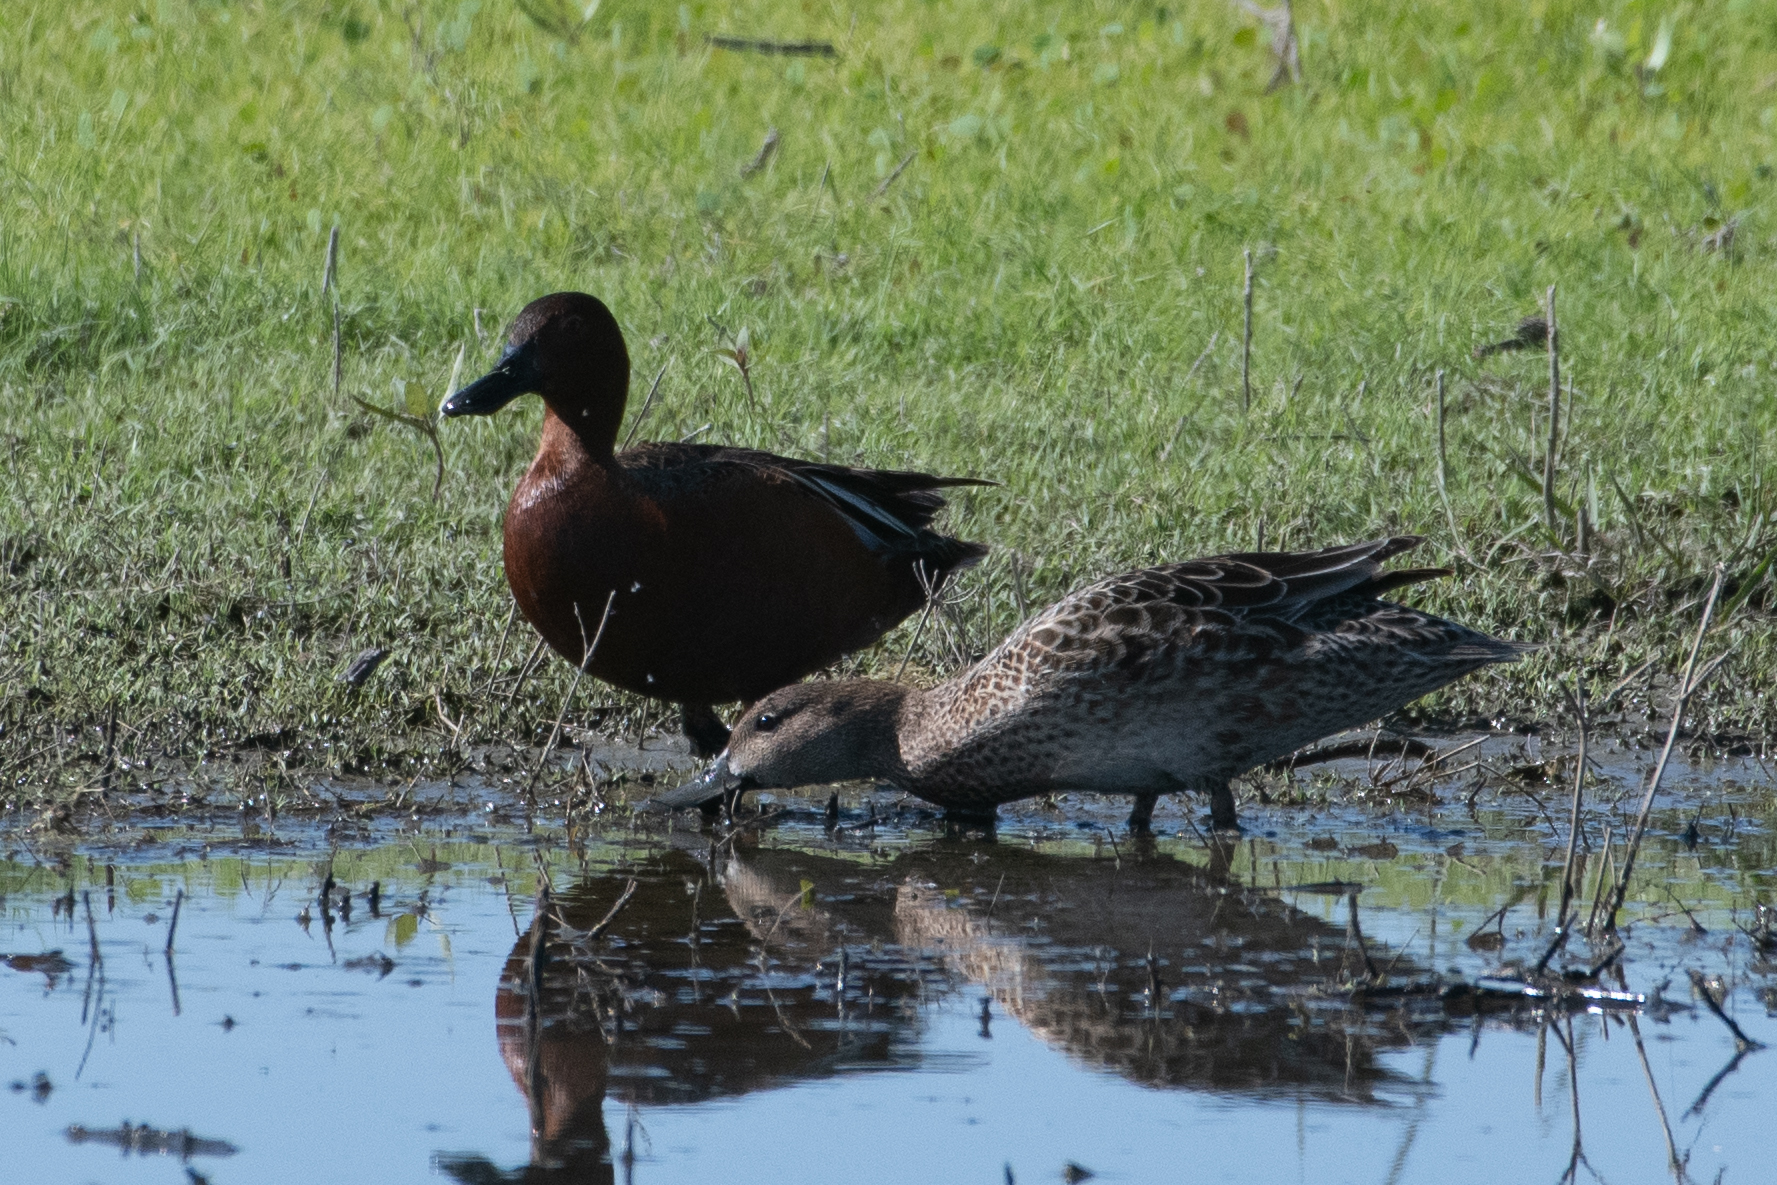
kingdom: Animalia
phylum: Chordata
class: Aves
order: Anseriformes
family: Anatidae
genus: Spatula
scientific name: Spatula cyanoptera
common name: Cinnamon teal
